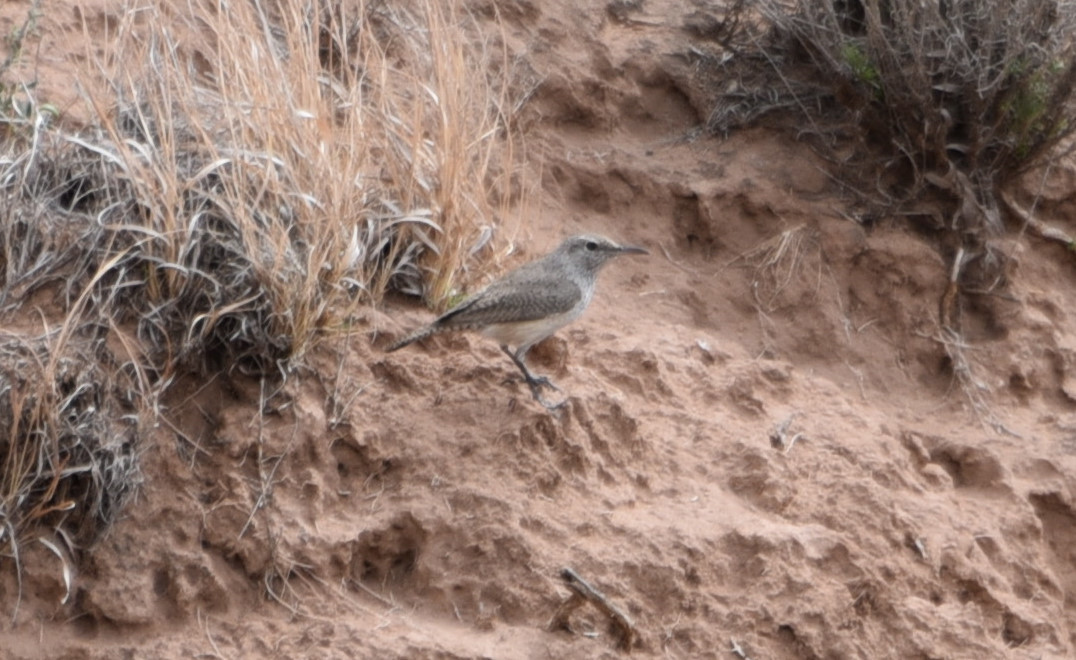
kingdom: Animalia
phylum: Chordata
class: Aves
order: Passeriformes
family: Troglodytidae
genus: Salpinctes
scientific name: Salpinctes obsoletus
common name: Rock wren
